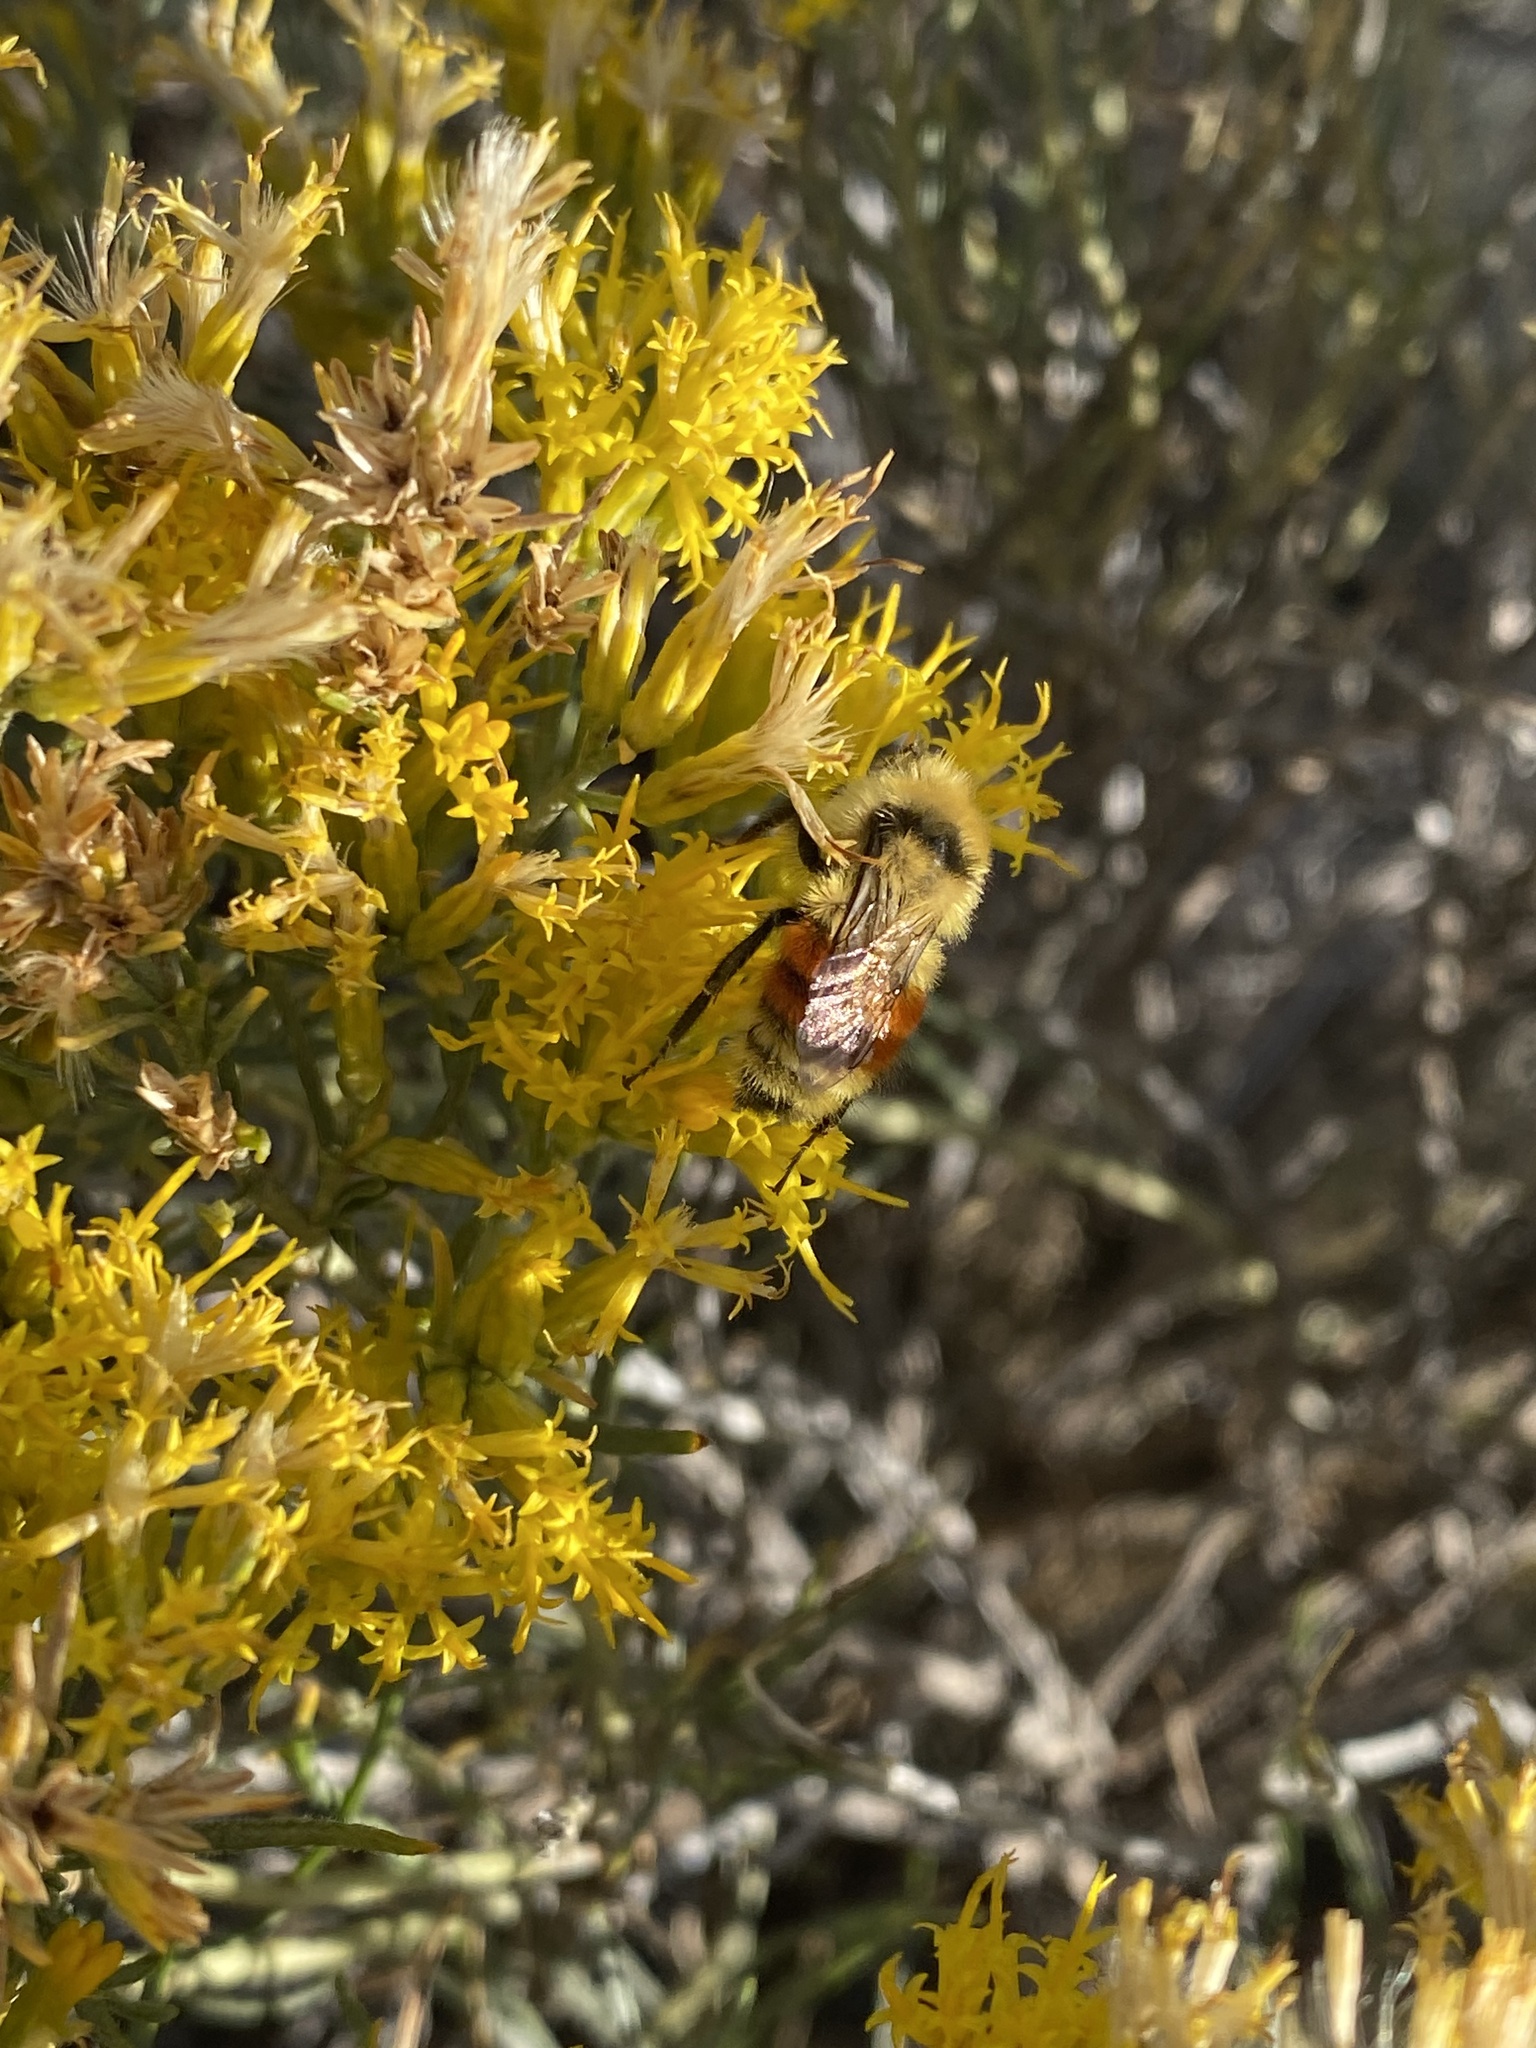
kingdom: Animalia
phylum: Arthropoda
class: Insecta
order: Hymenoptera
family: Apidae
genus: Bombus
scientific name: Bombus huntii
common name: Hunt bumble bee
